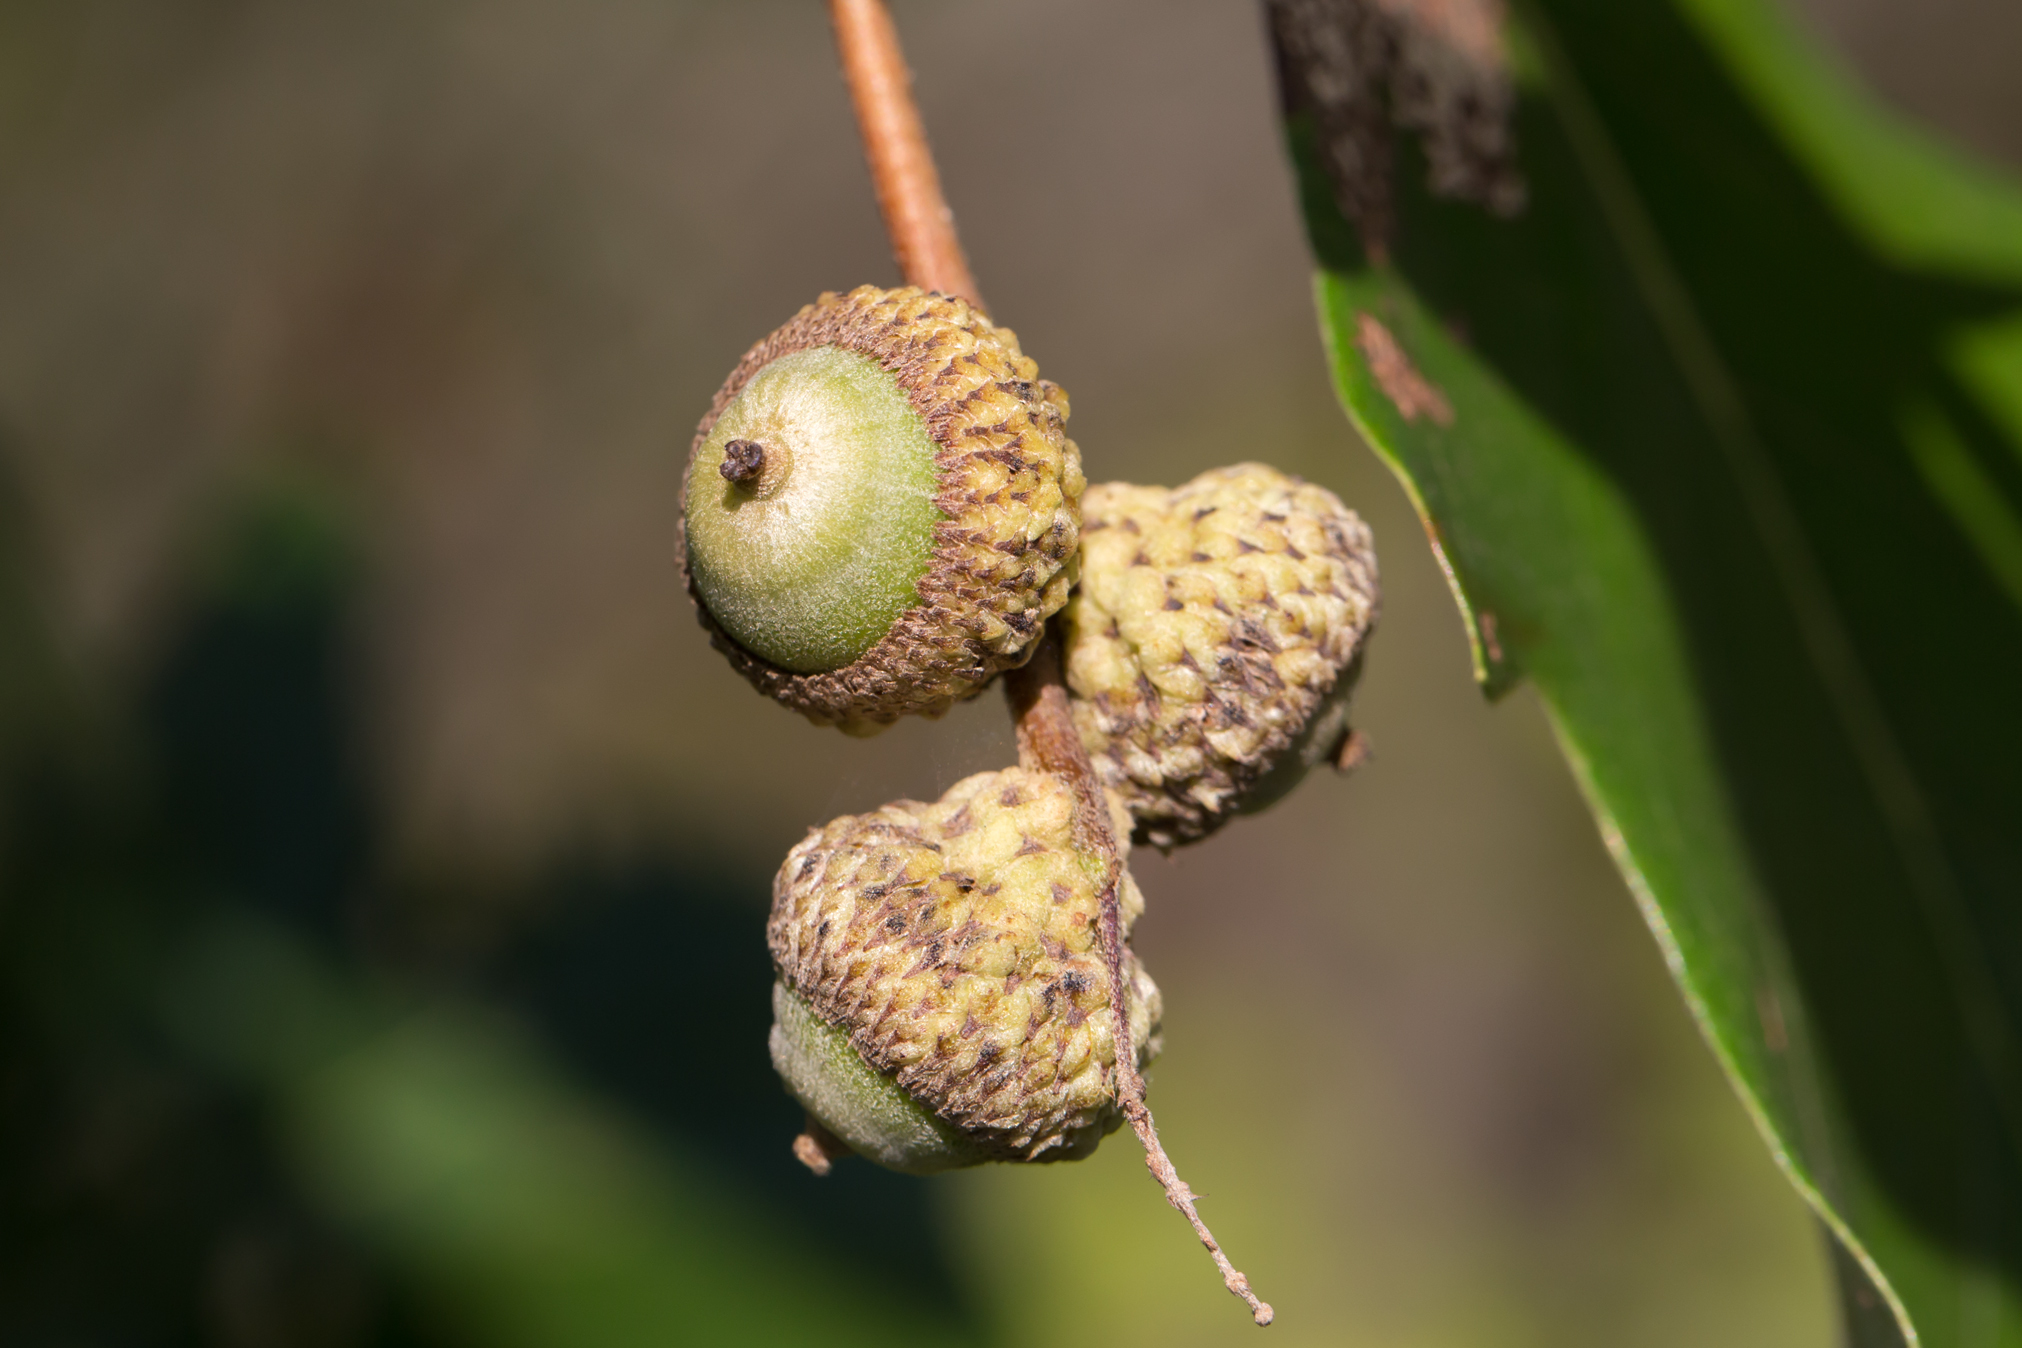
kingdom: Plantae
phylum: Tracheophyta
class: Magnoliopsida
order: Fagales
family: Fagaceae
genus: Quercus
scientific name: Quercus bicolor
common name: Swamp white oak
